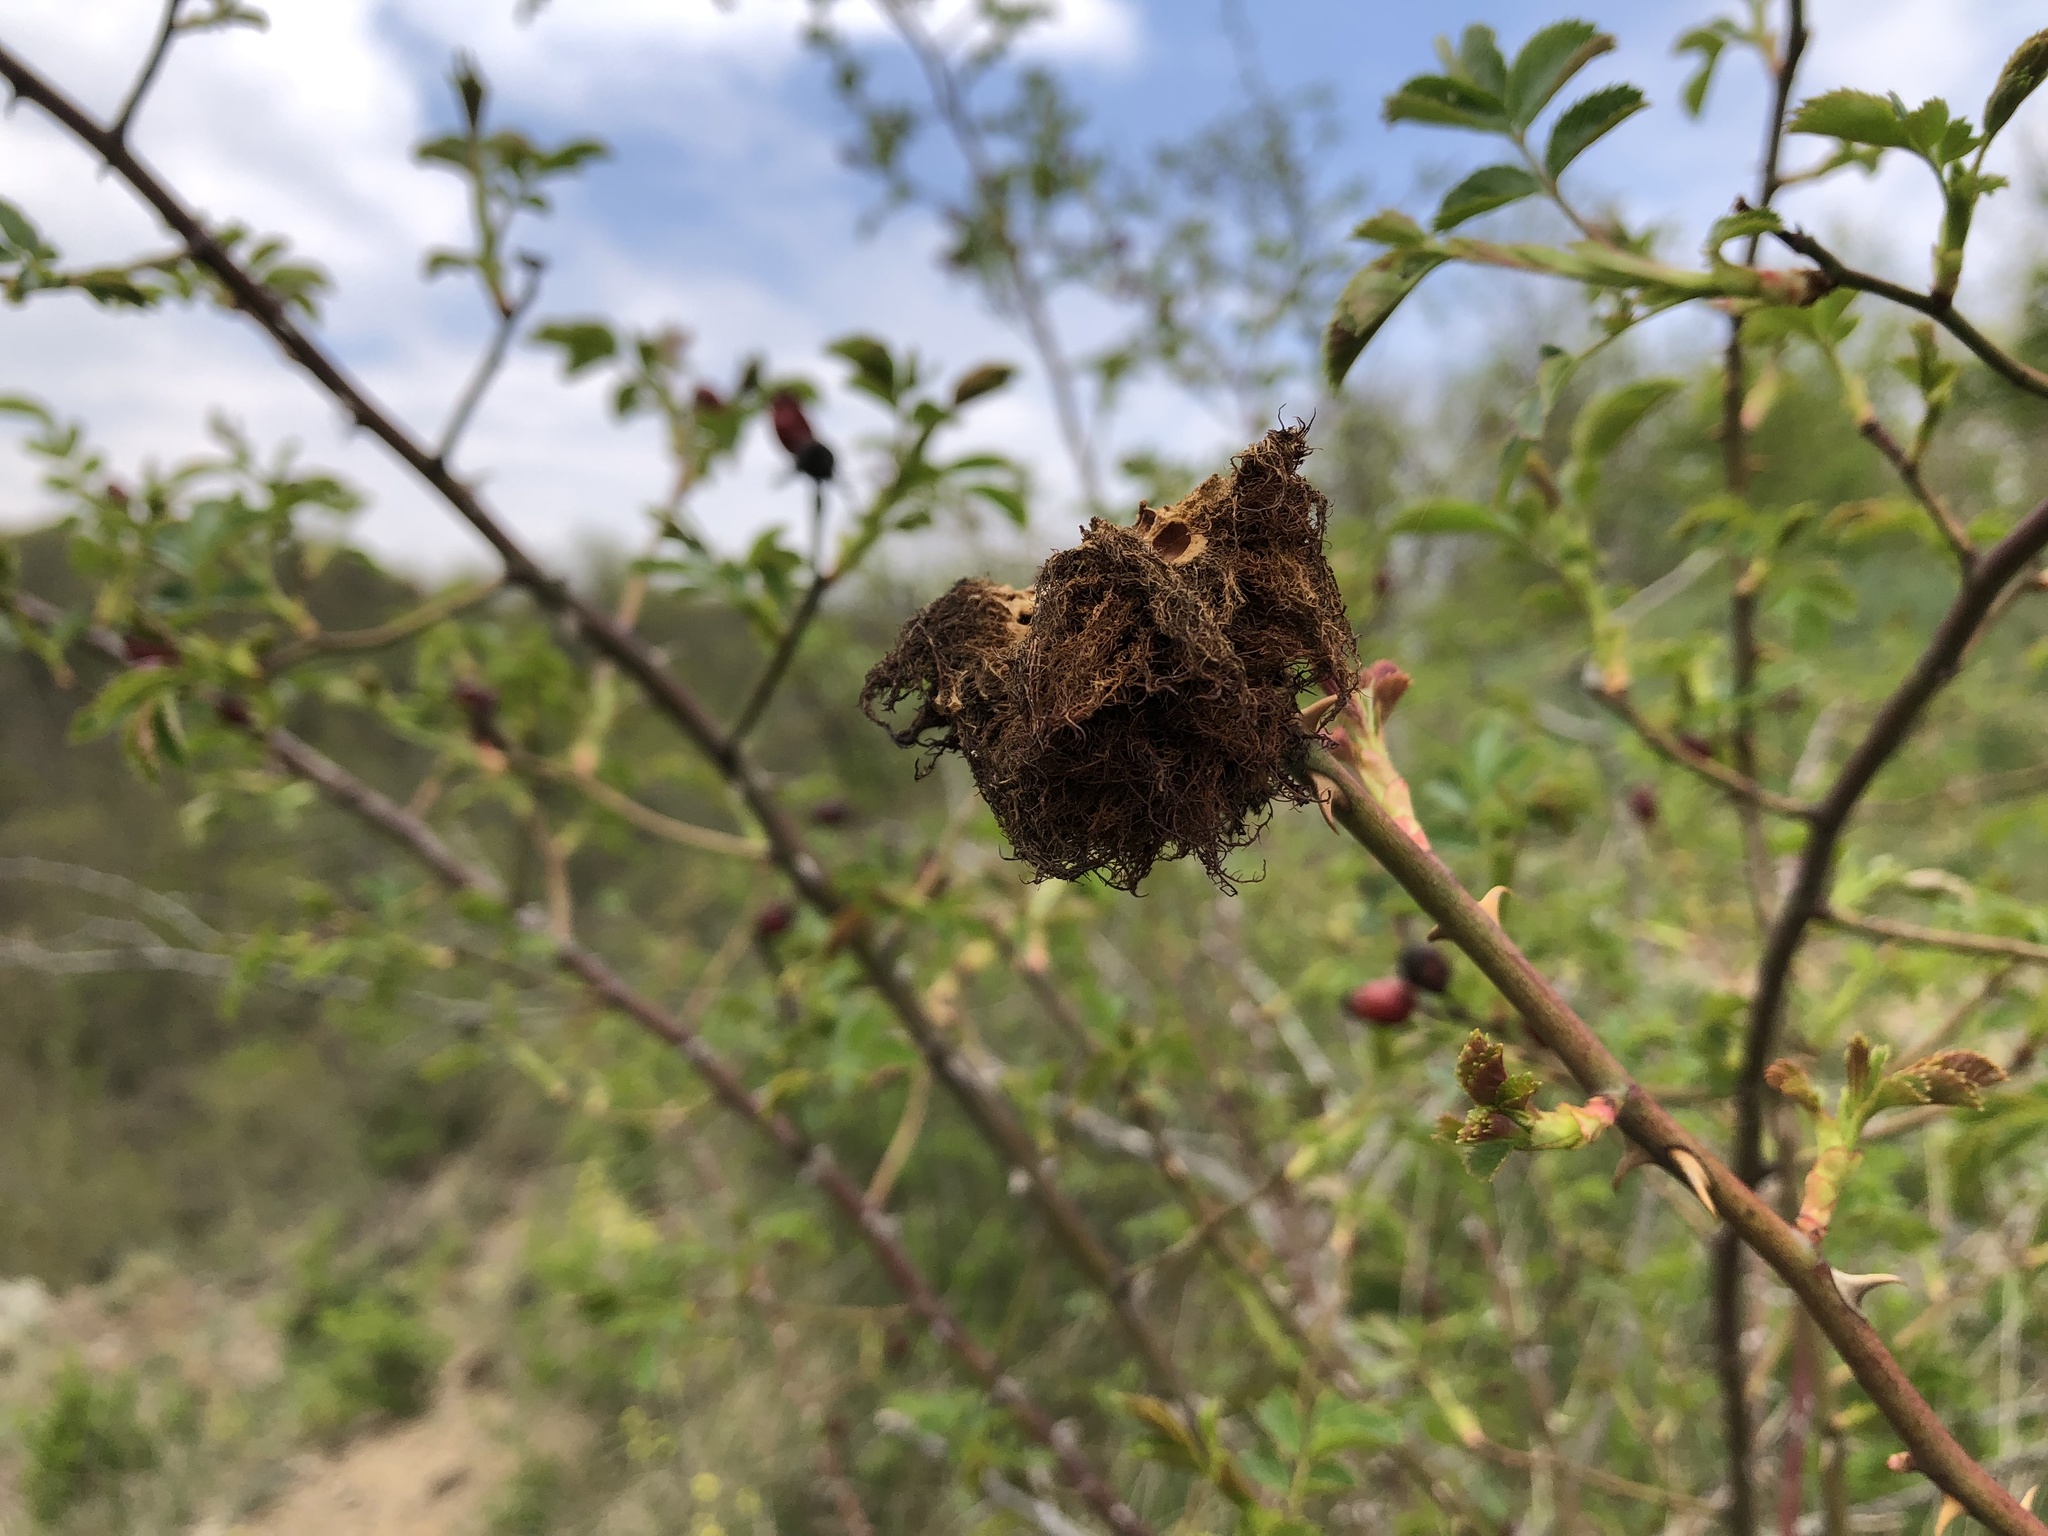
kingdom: Animalia
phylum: Arthropoda
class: Insecta
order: Hymenoptera
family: Cynipidae
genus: Diplolepis
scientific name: Diplolepis rosae
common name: Bedeguar gall
